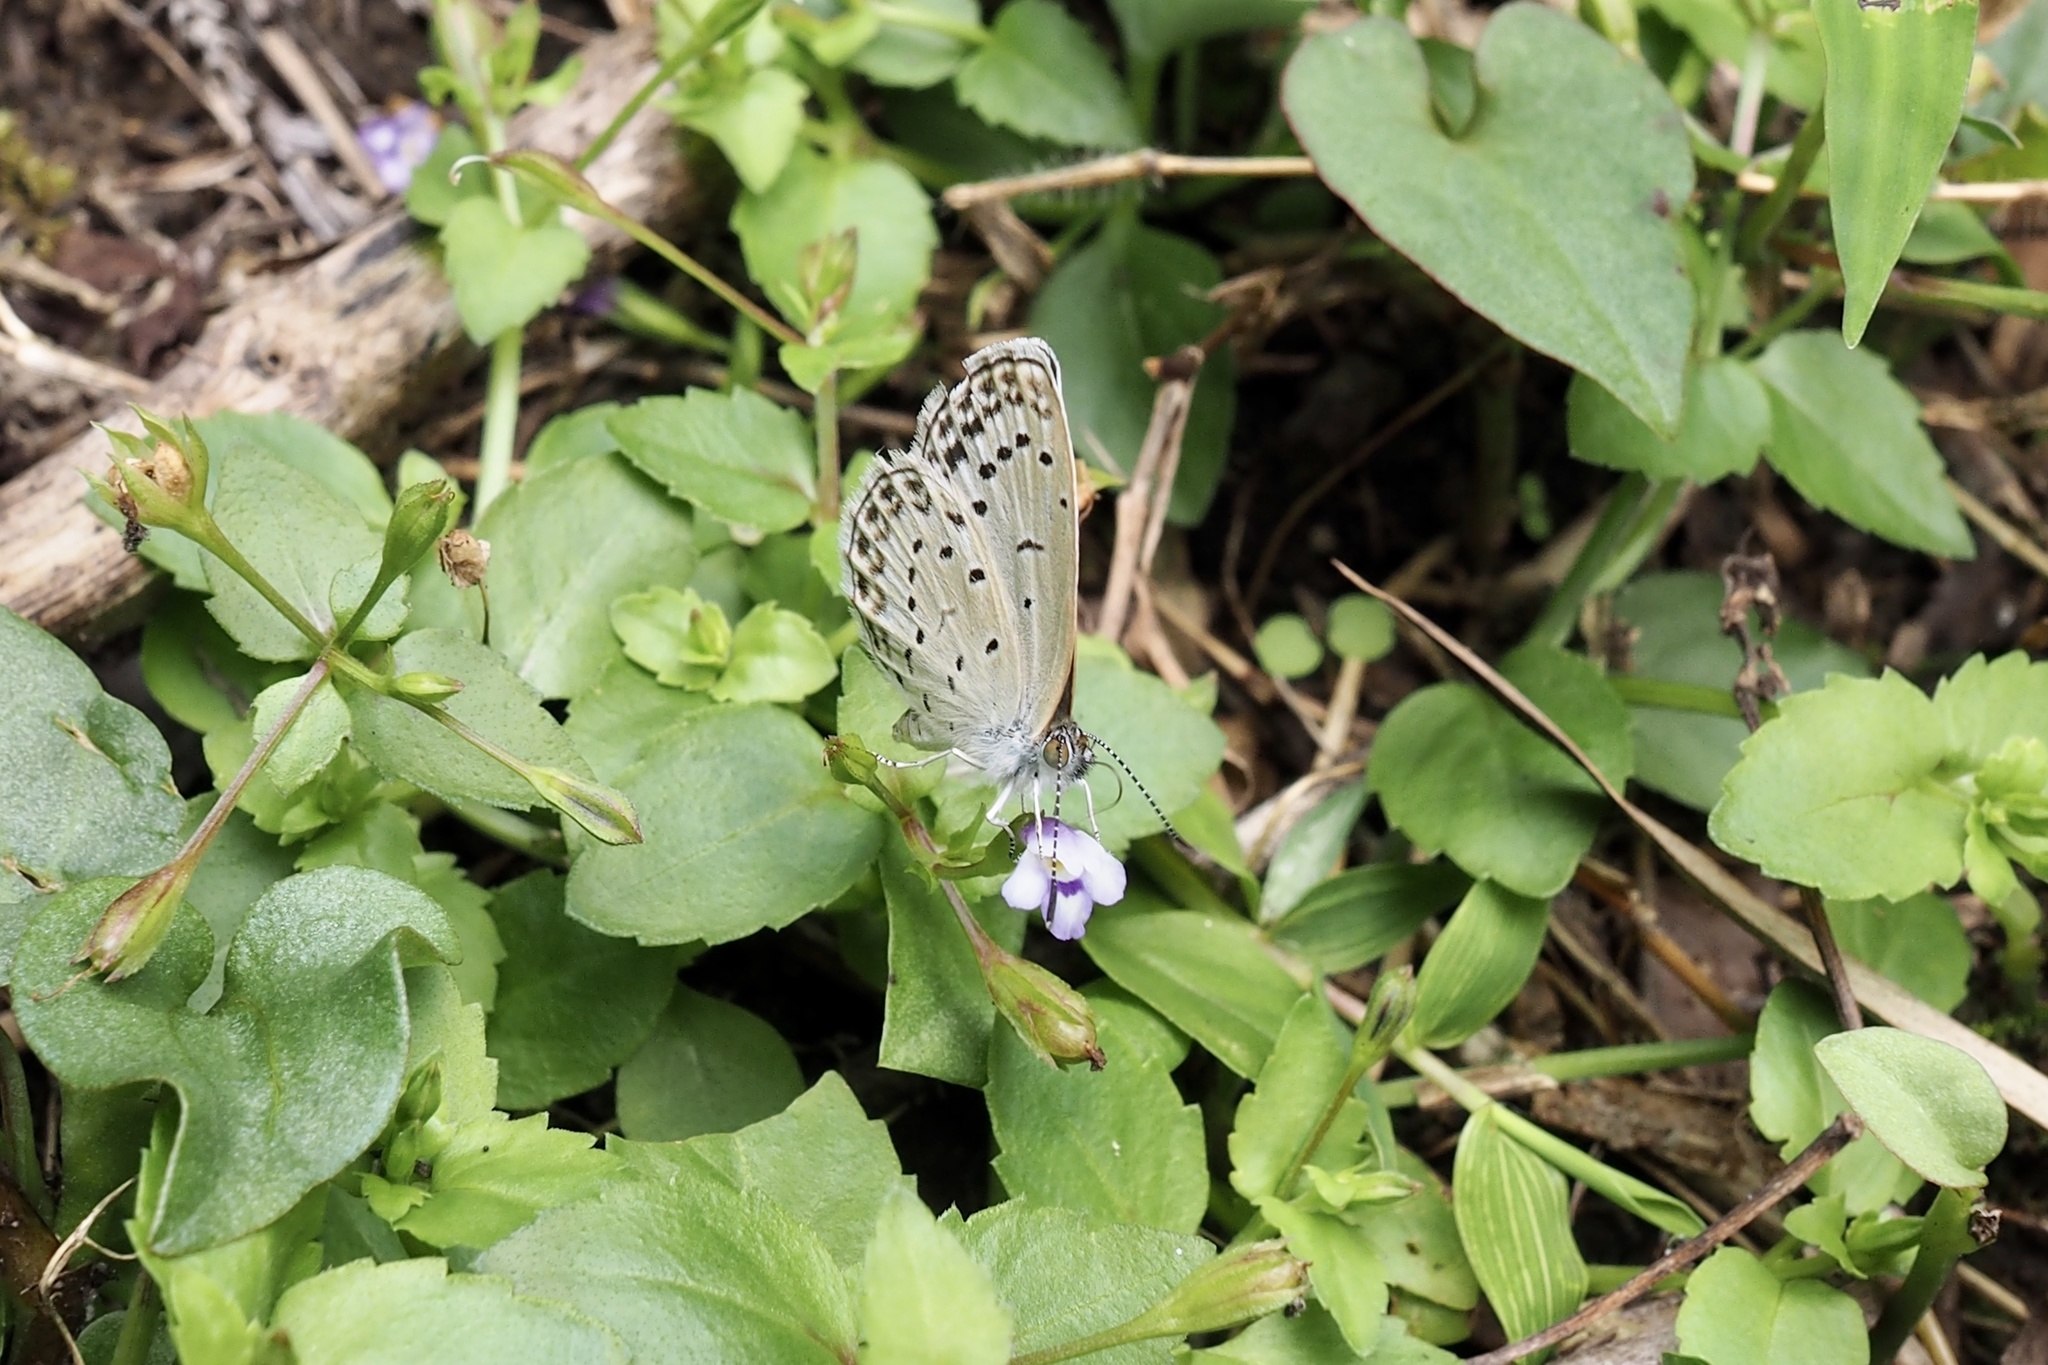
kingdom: Animalia
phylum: Arthropoda
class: Insecta
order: Lepidoptera
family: Lycaenidae
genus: Pseudozizeeria
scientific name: Pseudozizeeria maha
